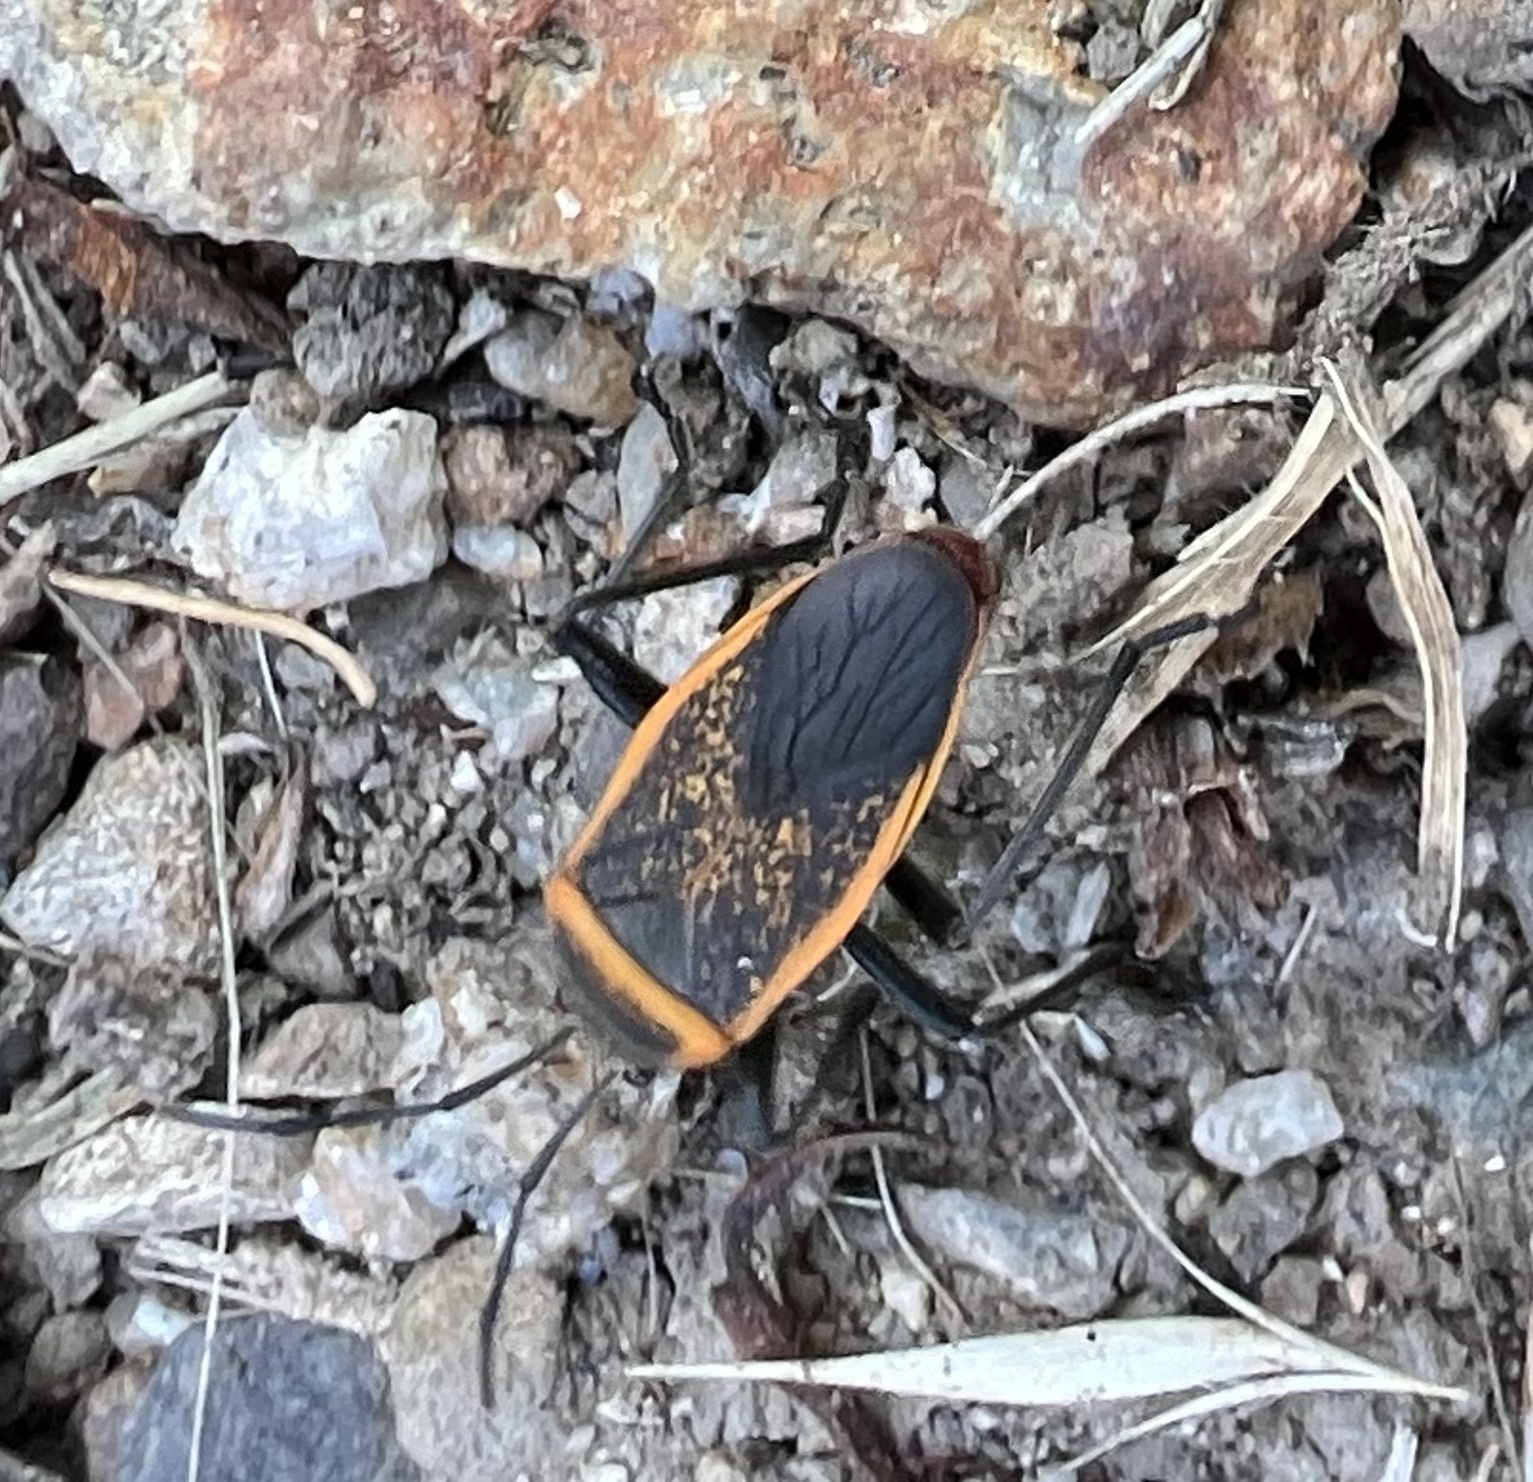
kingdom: Animalia
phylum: Arthropoda
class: Insecta
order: Hemiptera
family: Largidae
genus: Largus
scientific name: Largus californicus
